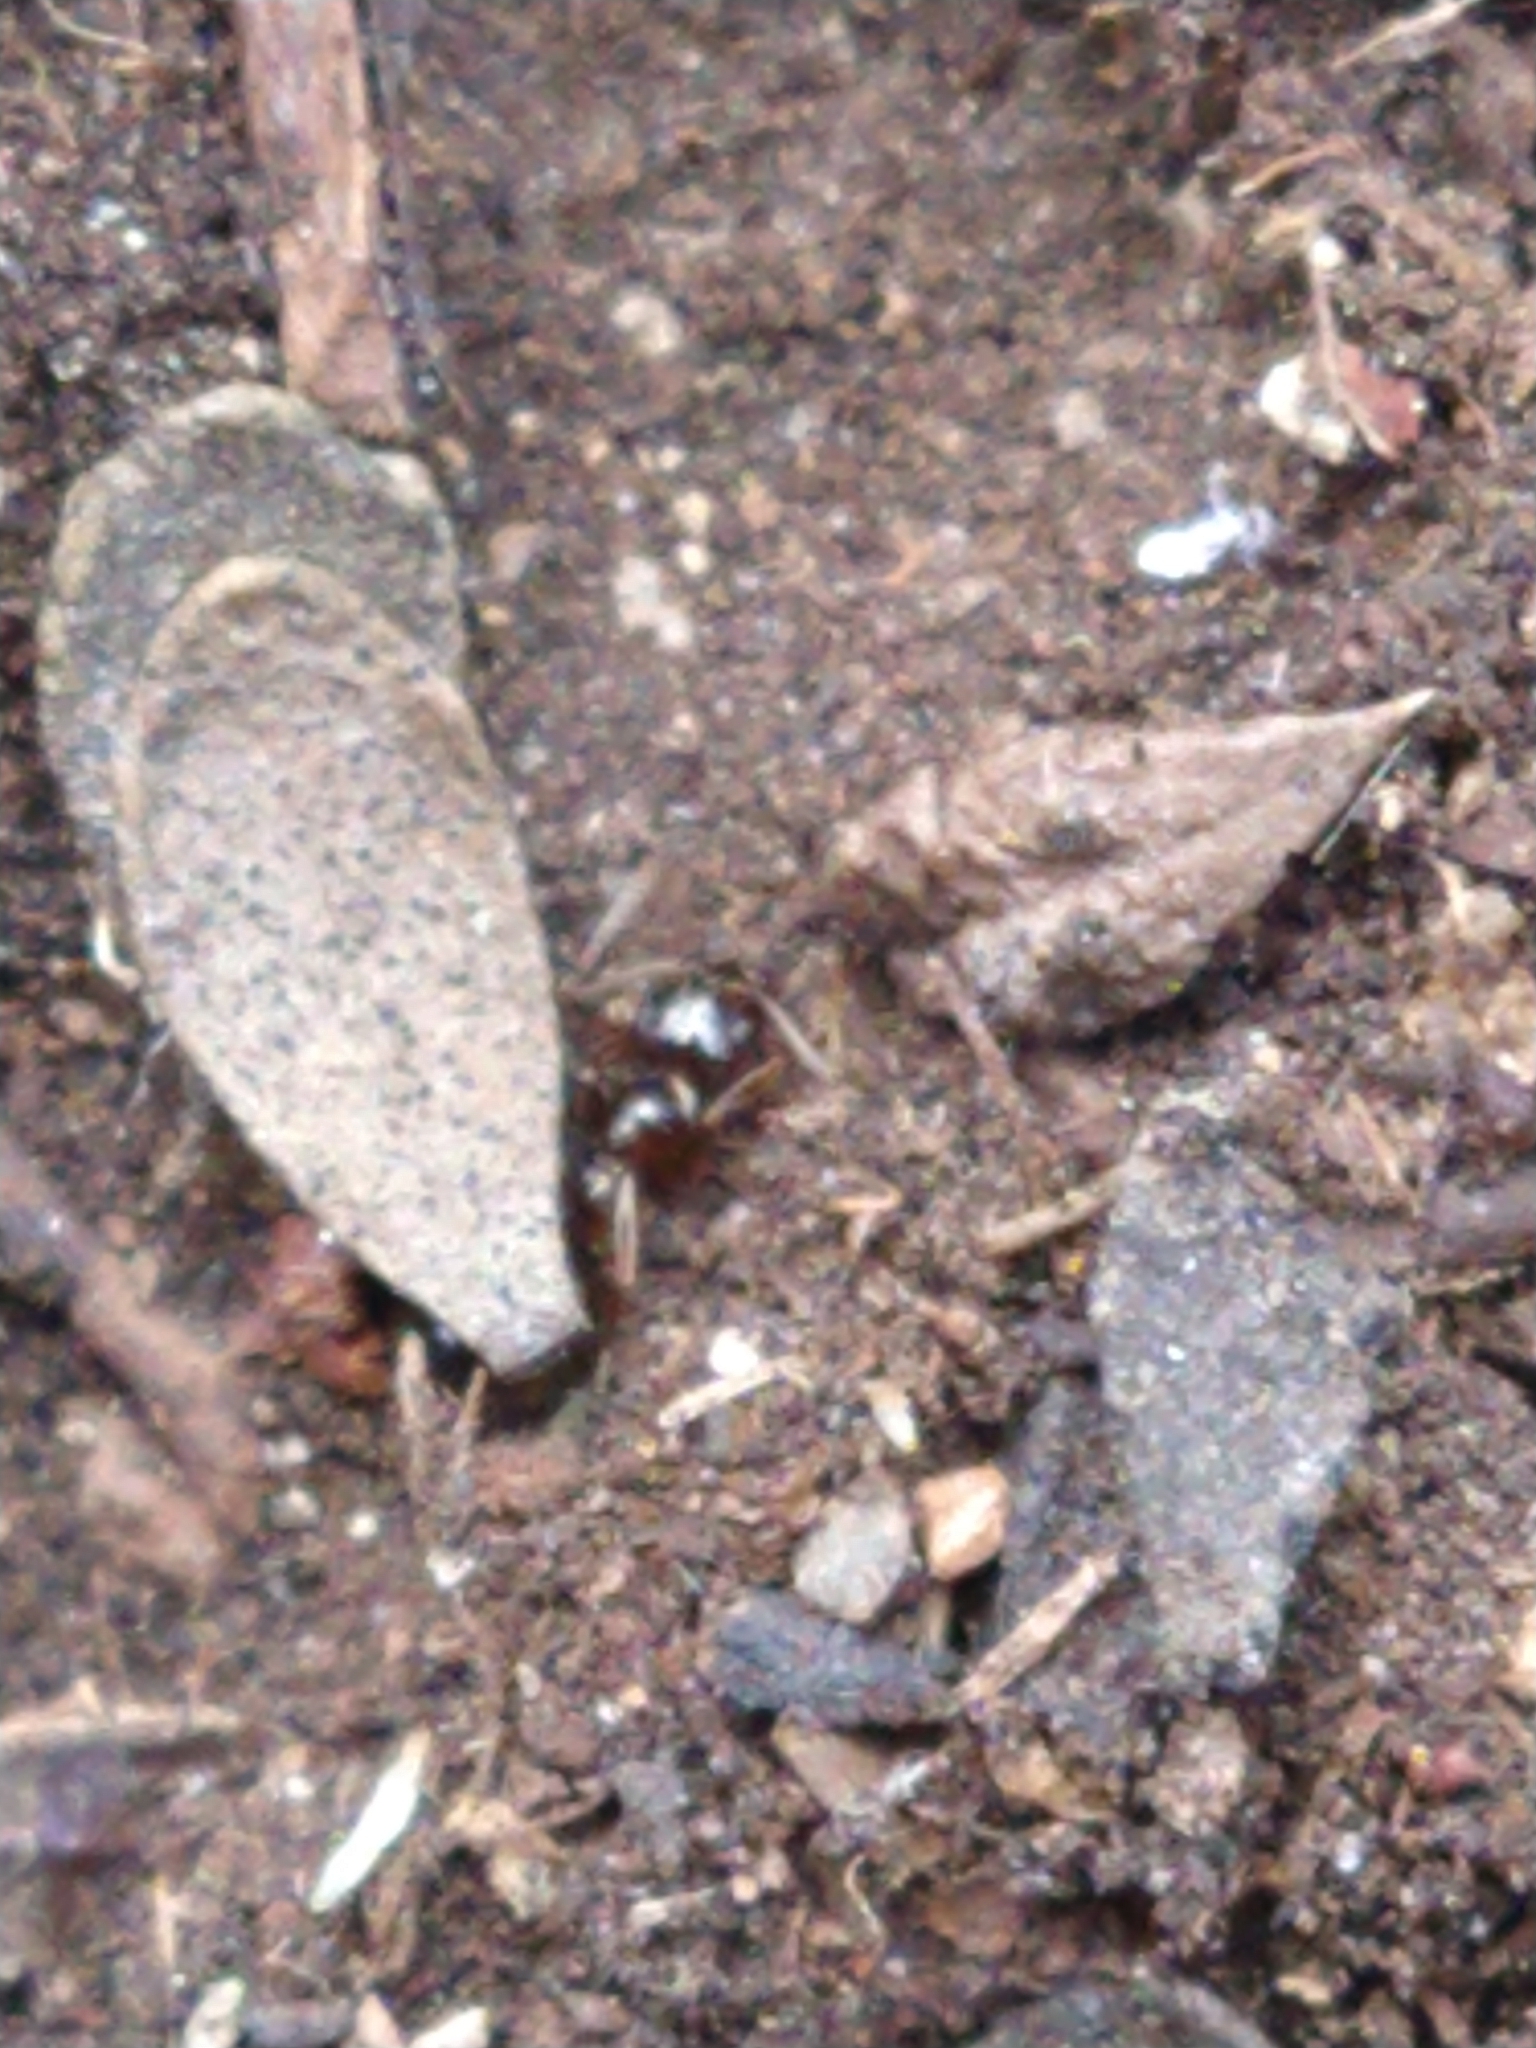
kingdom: Animalia
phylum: Arthropoda
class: Insecta
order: Hymenoptera
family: Formicidae
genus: Lasiophanes
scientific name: Lasiophanes
